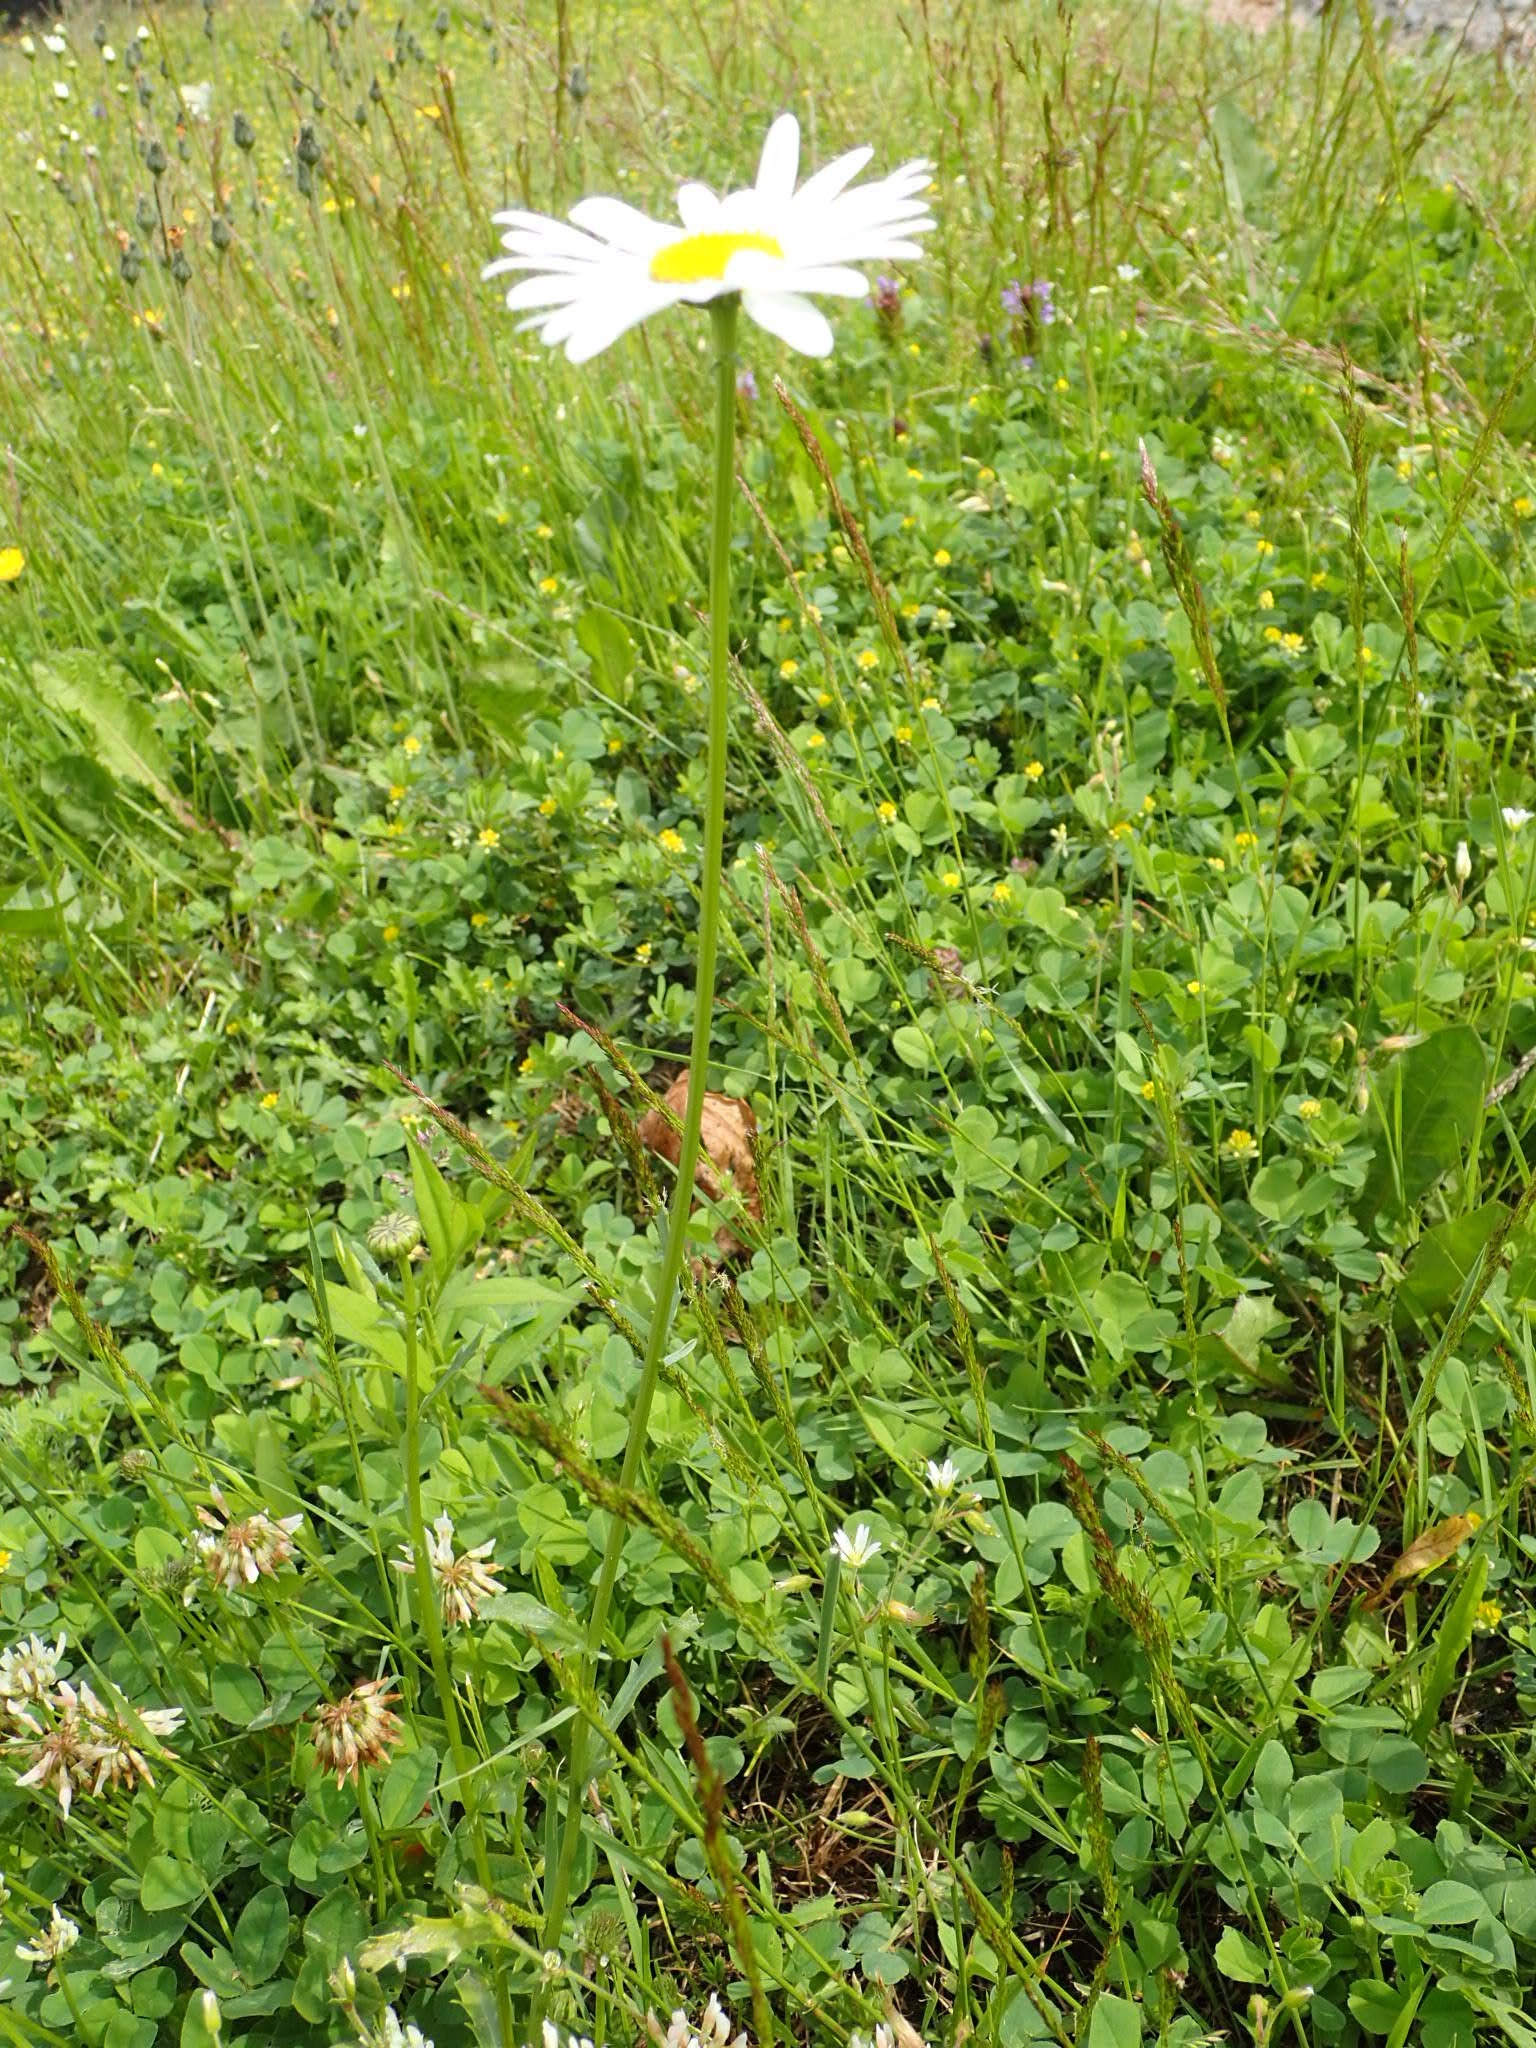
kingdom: Plantae
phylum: Tracheophyta
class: Magnoliopsida
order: Asterales
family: Asteraceae
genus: Leucanthemum
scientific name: Leucanthemum vulgare
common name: Oxeye daisy
